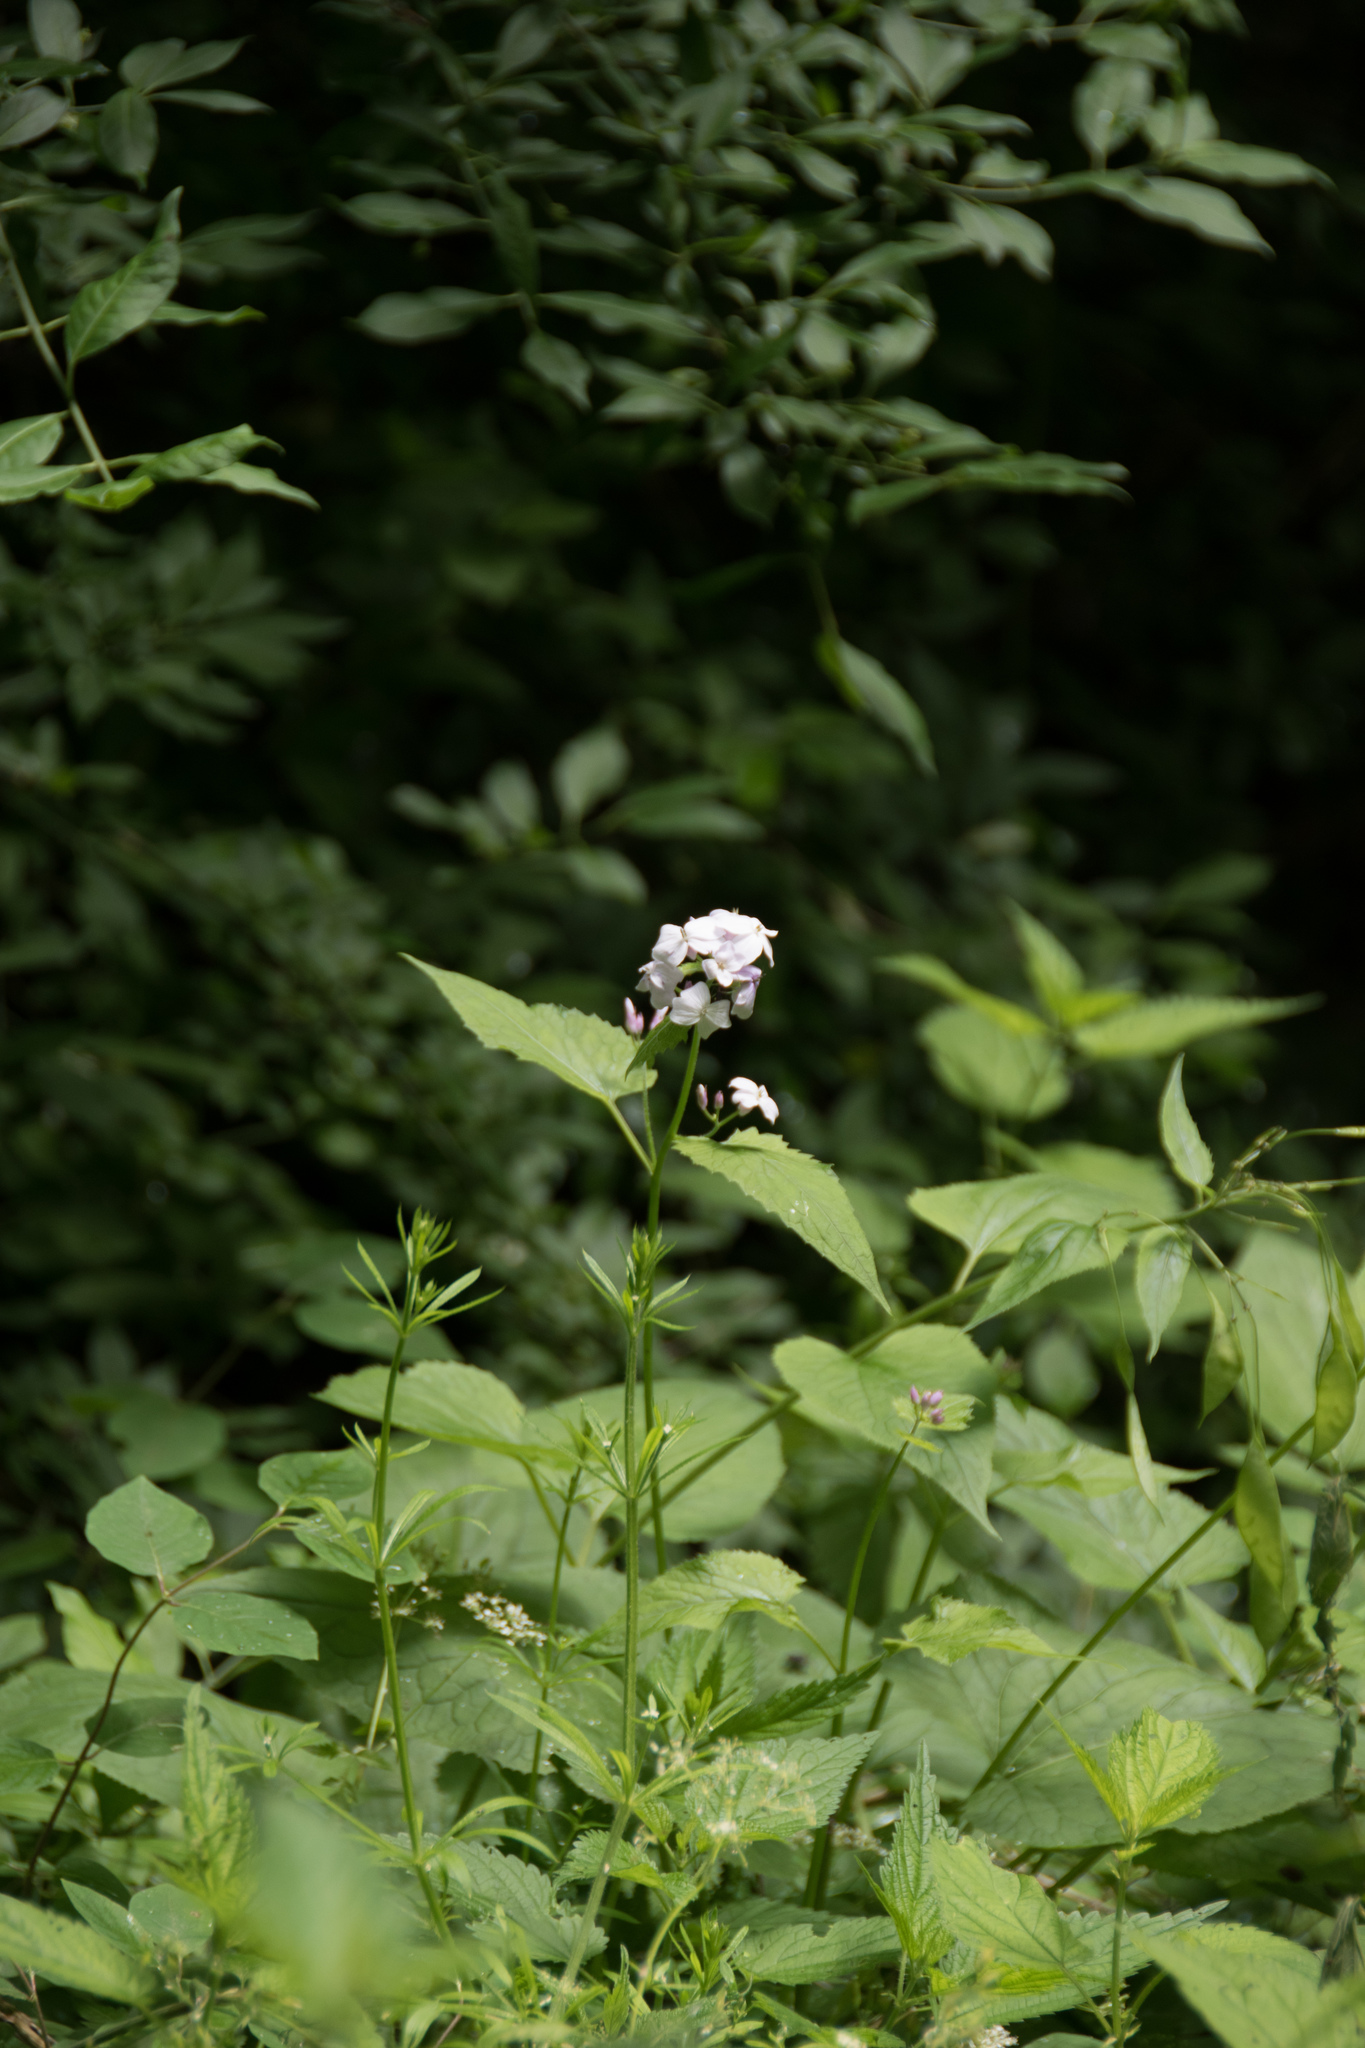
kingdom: Plantae
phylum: Tracheophyta
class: Magnoliopsida
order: Brassicales
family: Brassicaceae
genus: Lunaria
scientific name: Lunaria rediviva
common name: Perennial honesty
